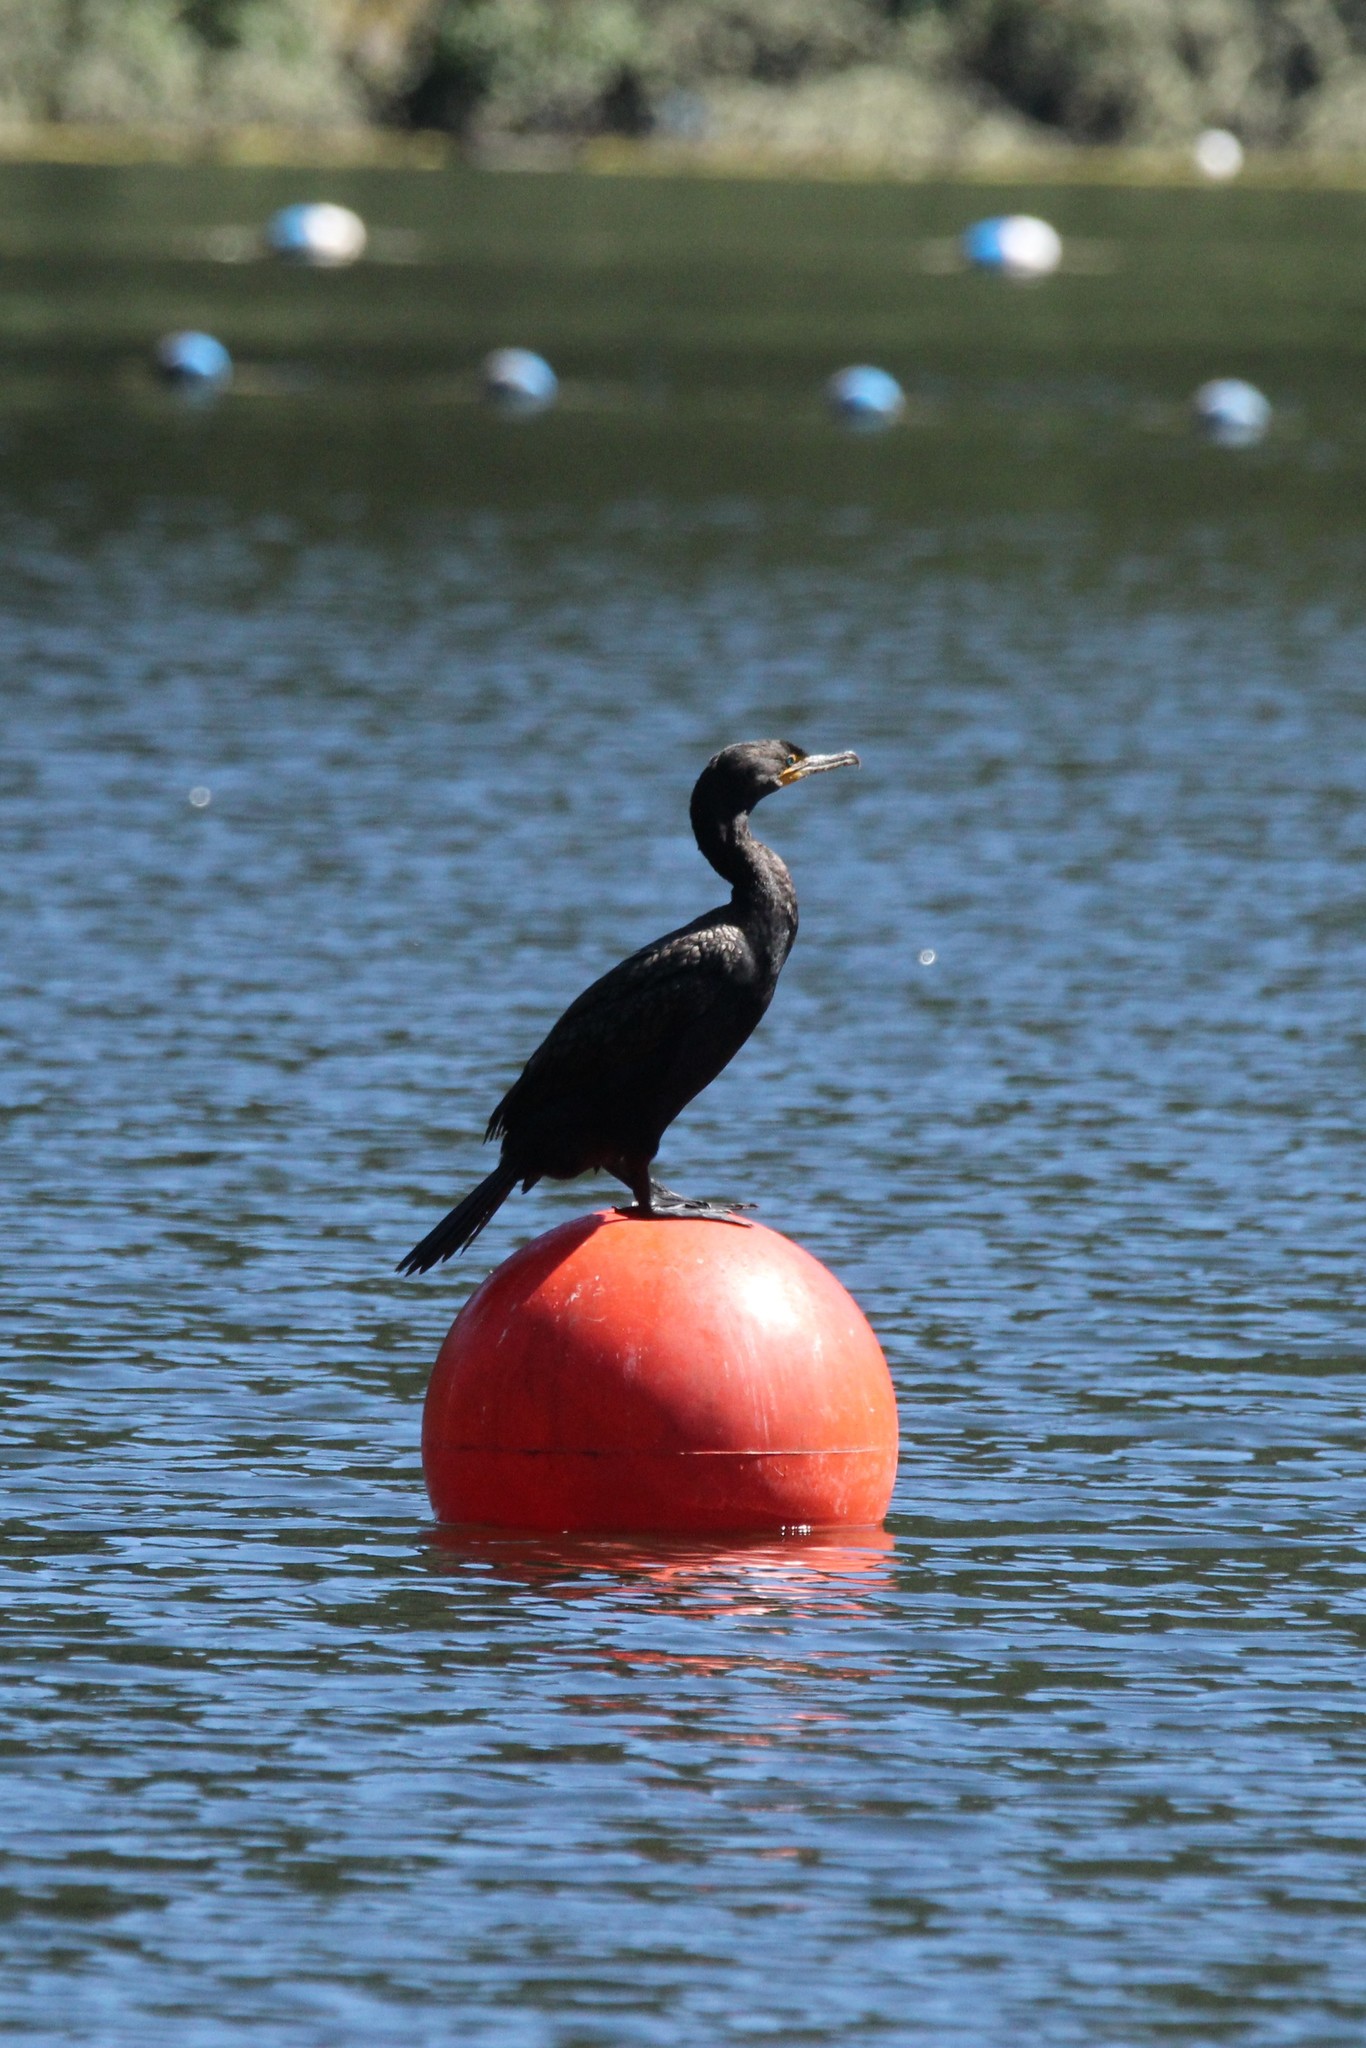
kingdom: Animalia
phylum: Chordata
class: Aves
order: Suliformes
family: Phalacrocoracidae
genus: Phalacrocorax
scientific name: Phalacrocorax auritus
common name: Double-crested cormorant
